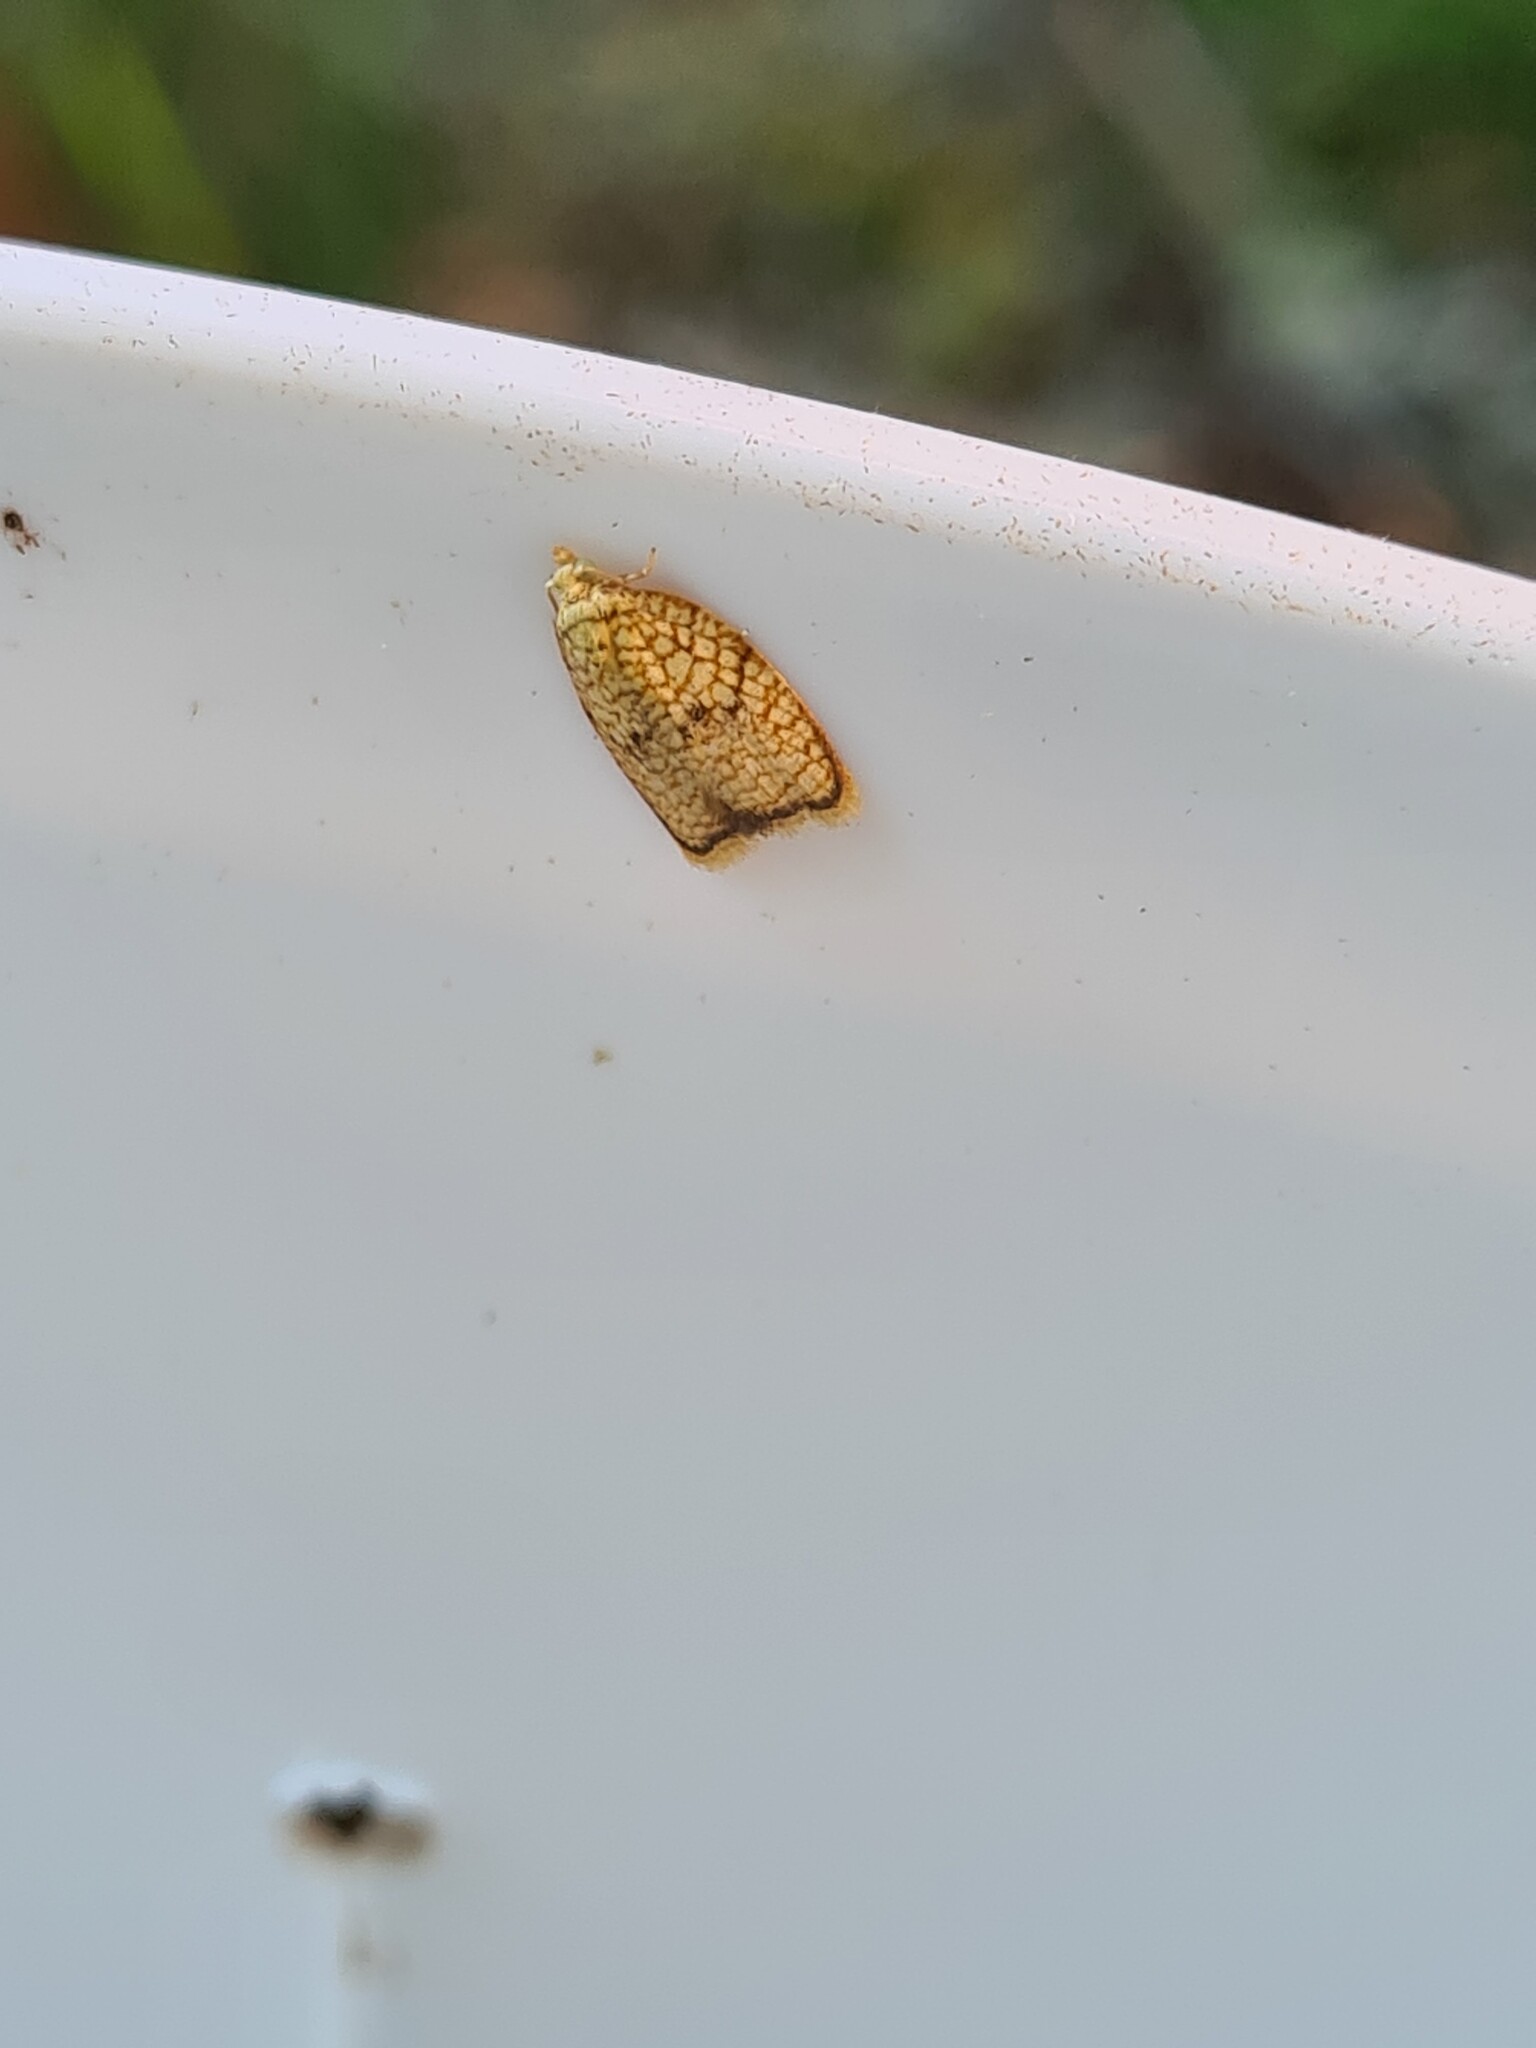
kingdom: Animalia
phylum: Arthropoda
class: Insecta
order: Lepidoptera
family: Tortricidae
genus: Acleris
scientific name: Acleris forsskaleana
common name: Maple button
